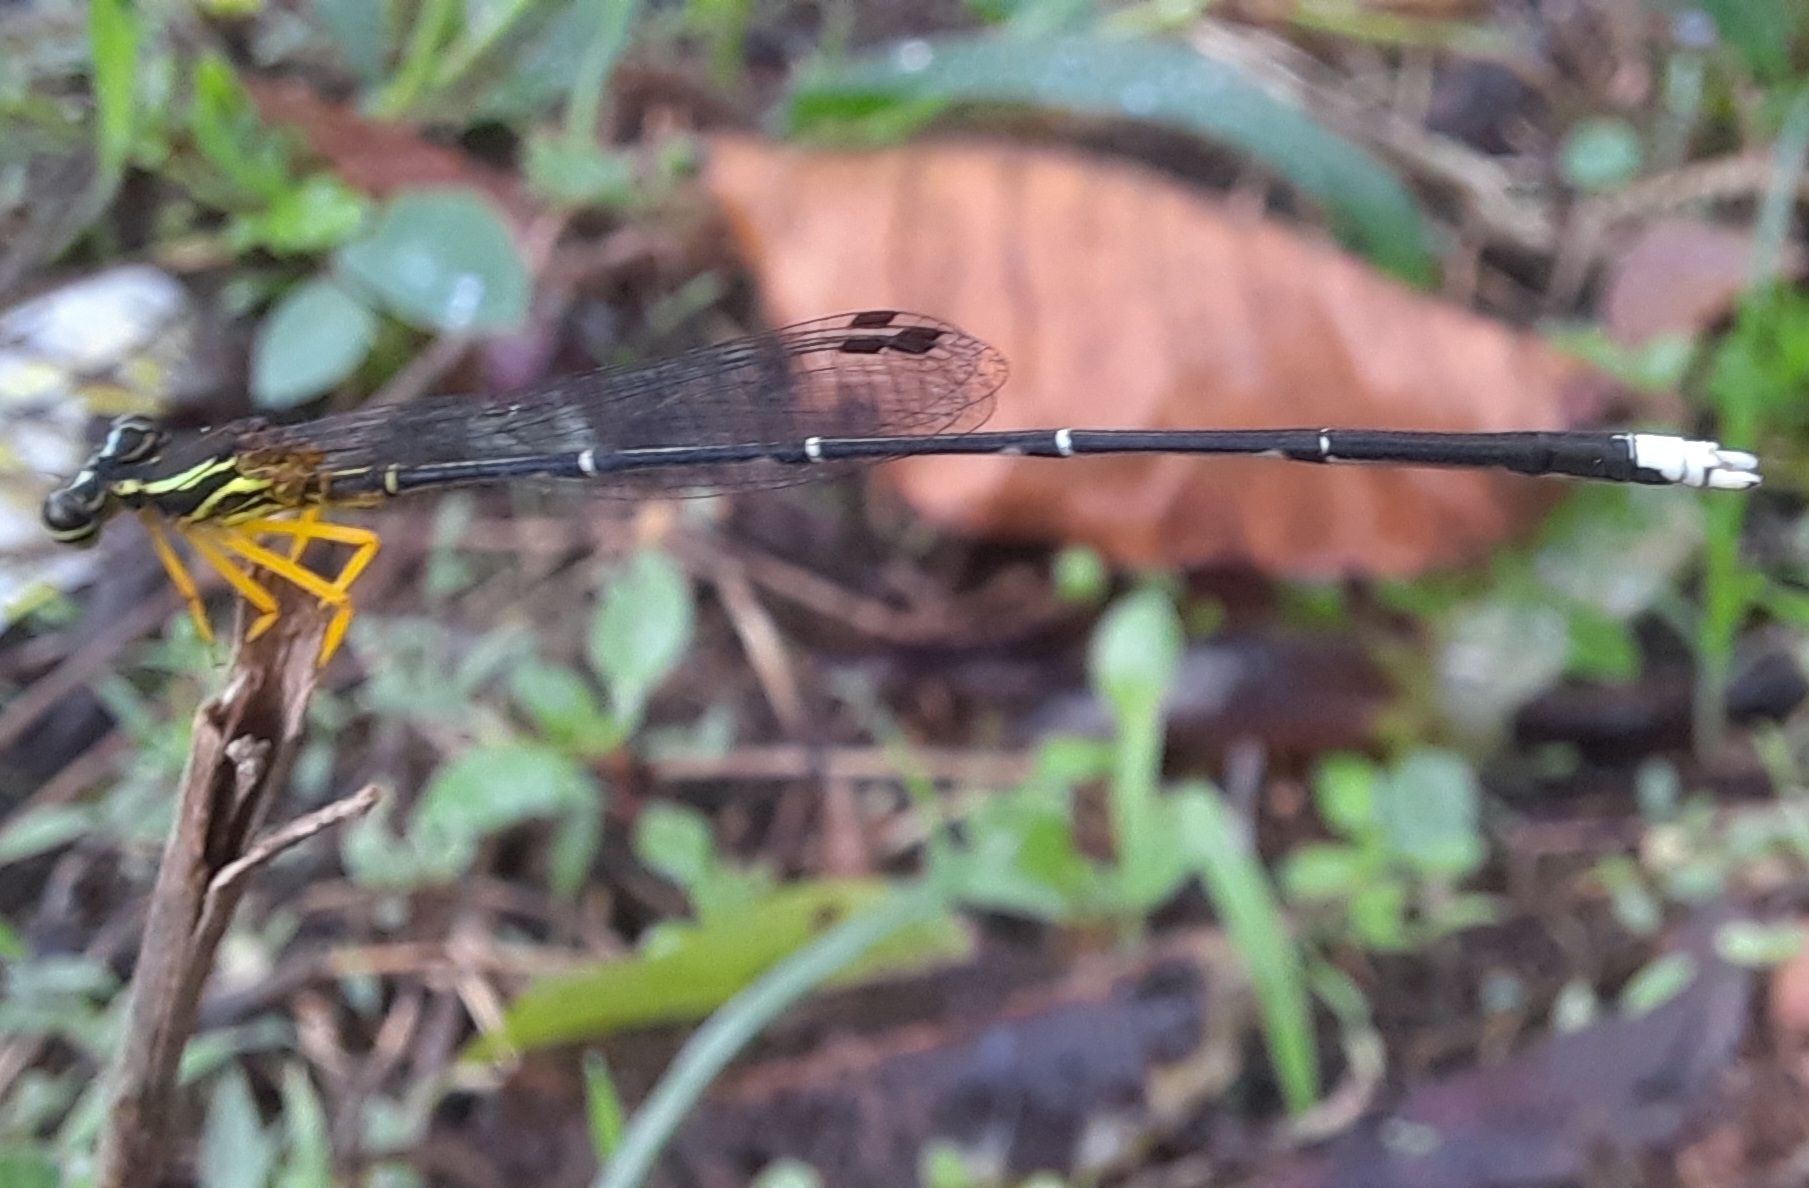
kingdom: Animalia
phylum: Arthropoda
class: Insecta
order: Odonata
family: Platycnemididae
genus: Copera
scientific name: Copera marginipes
